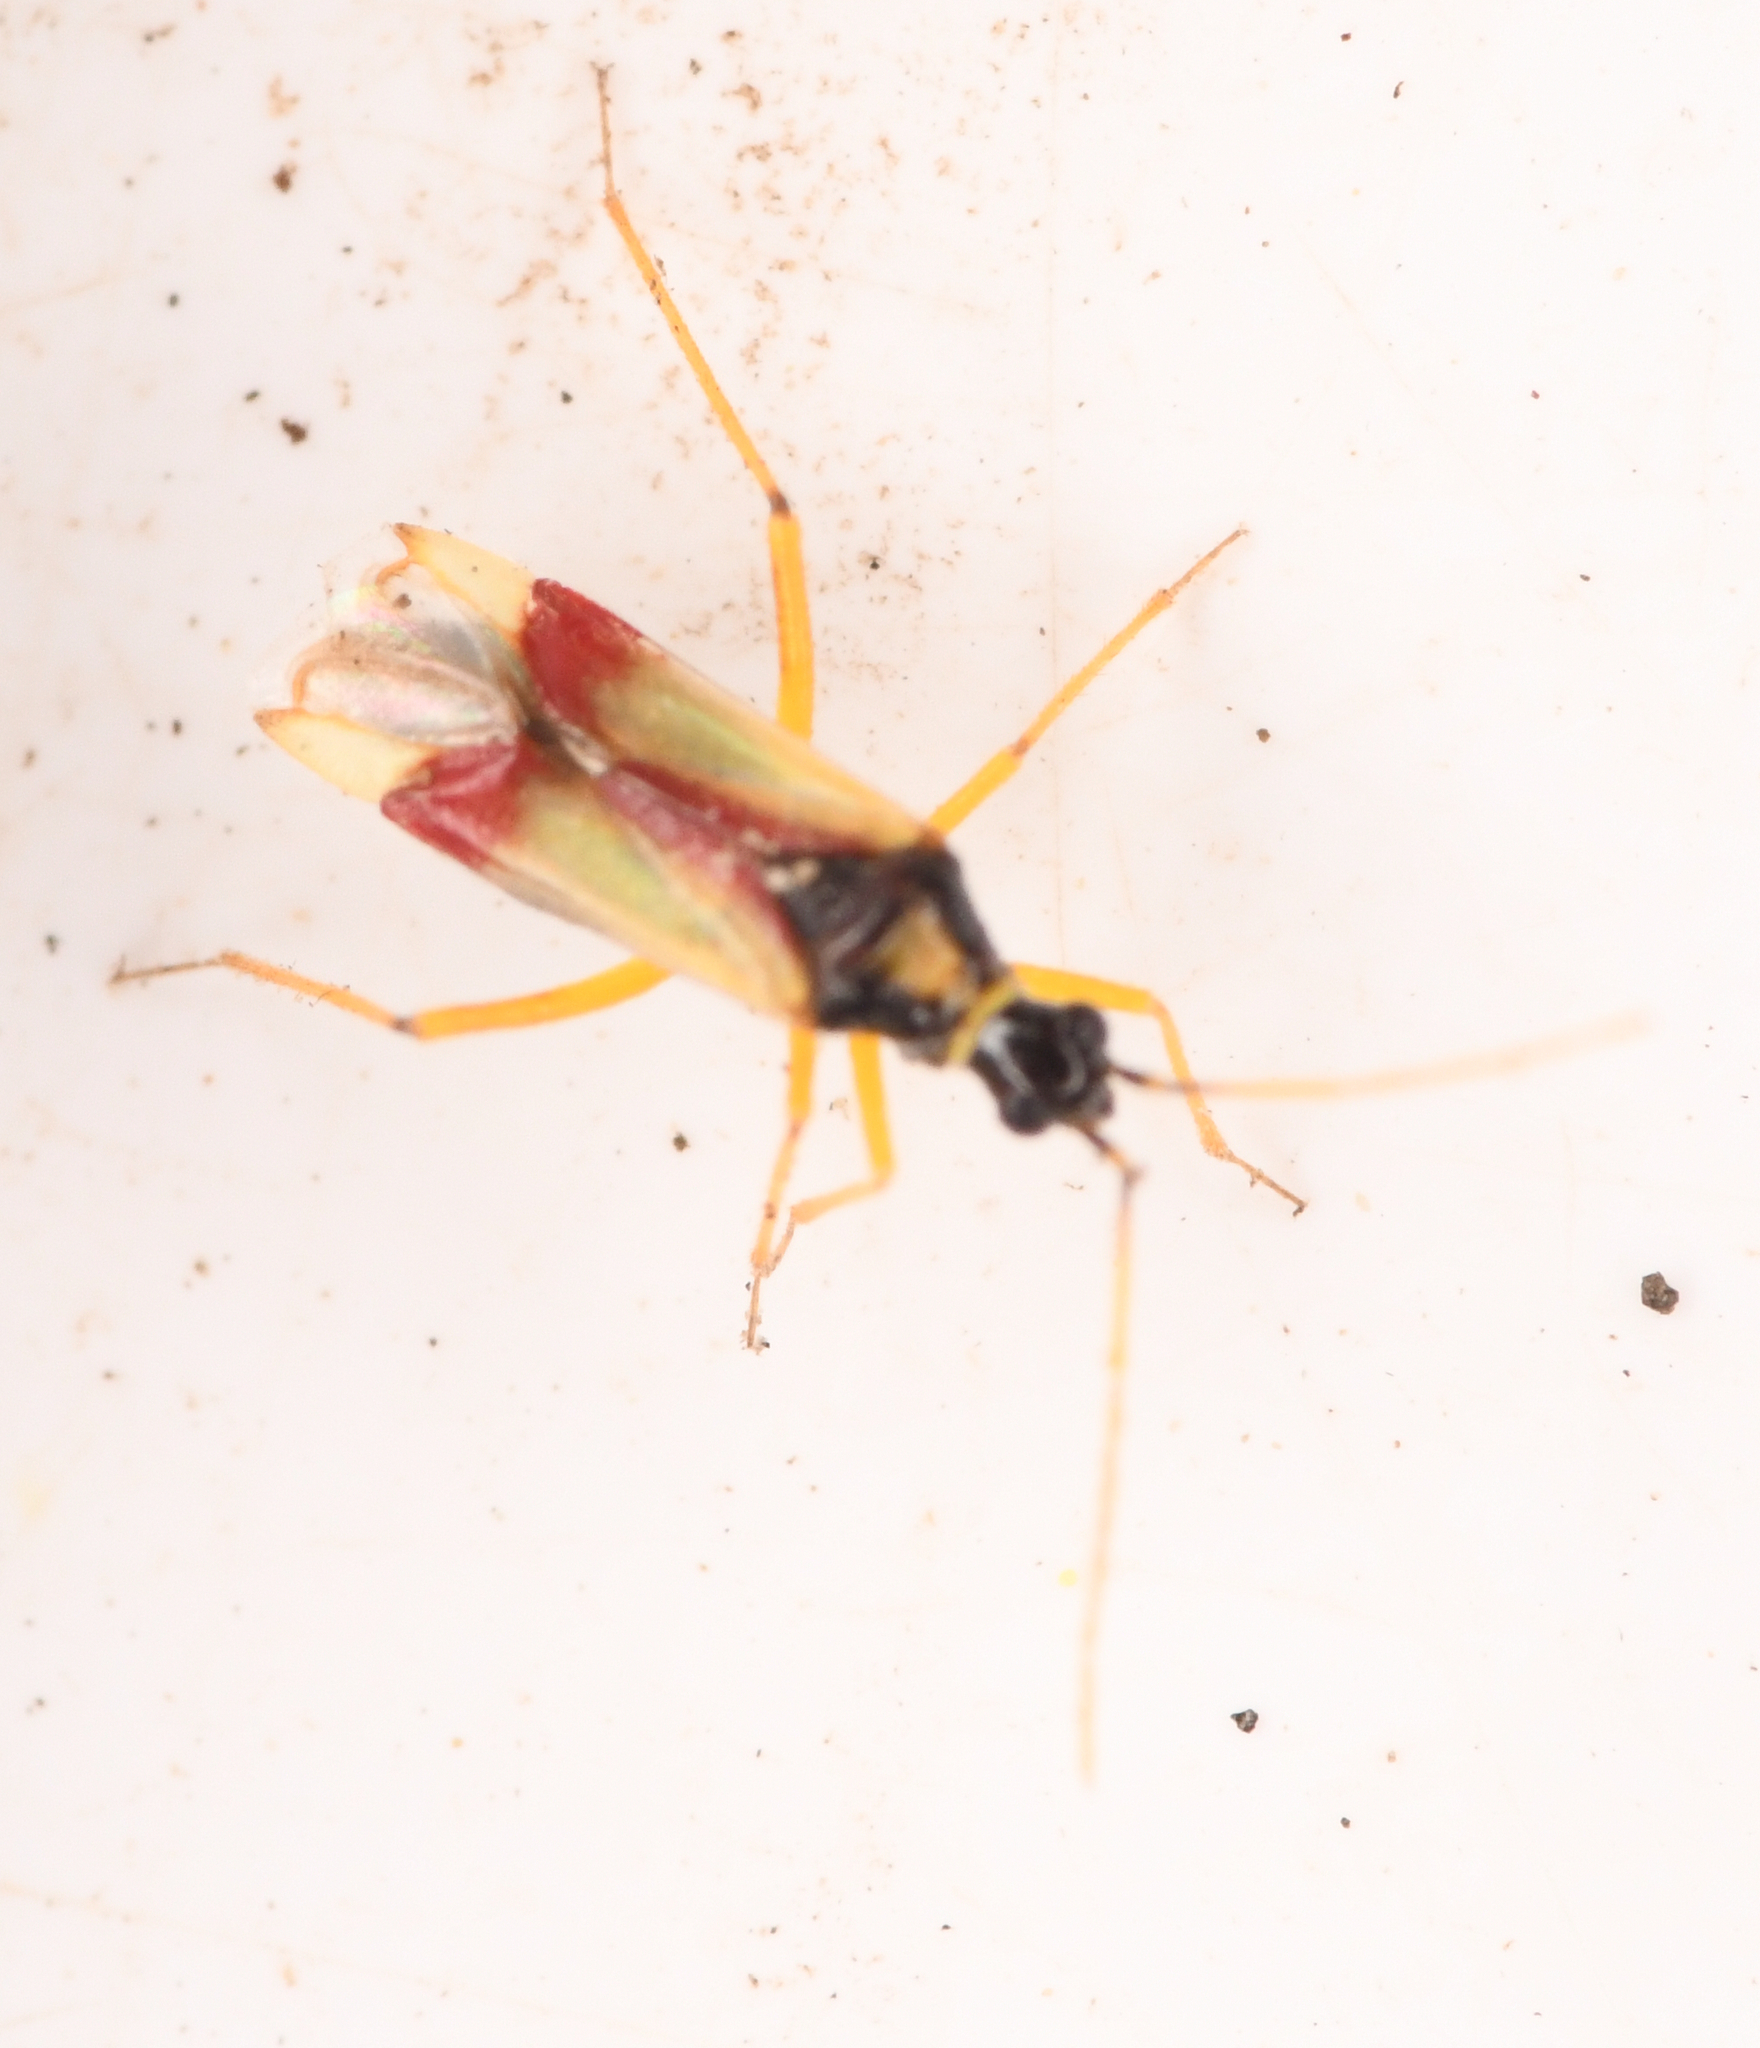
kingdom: Animalia
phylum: Arthropoda
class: Insecta
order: Hemiptera
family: Miridae
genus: Tupiocoris
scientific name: Tupiocoris californicus
